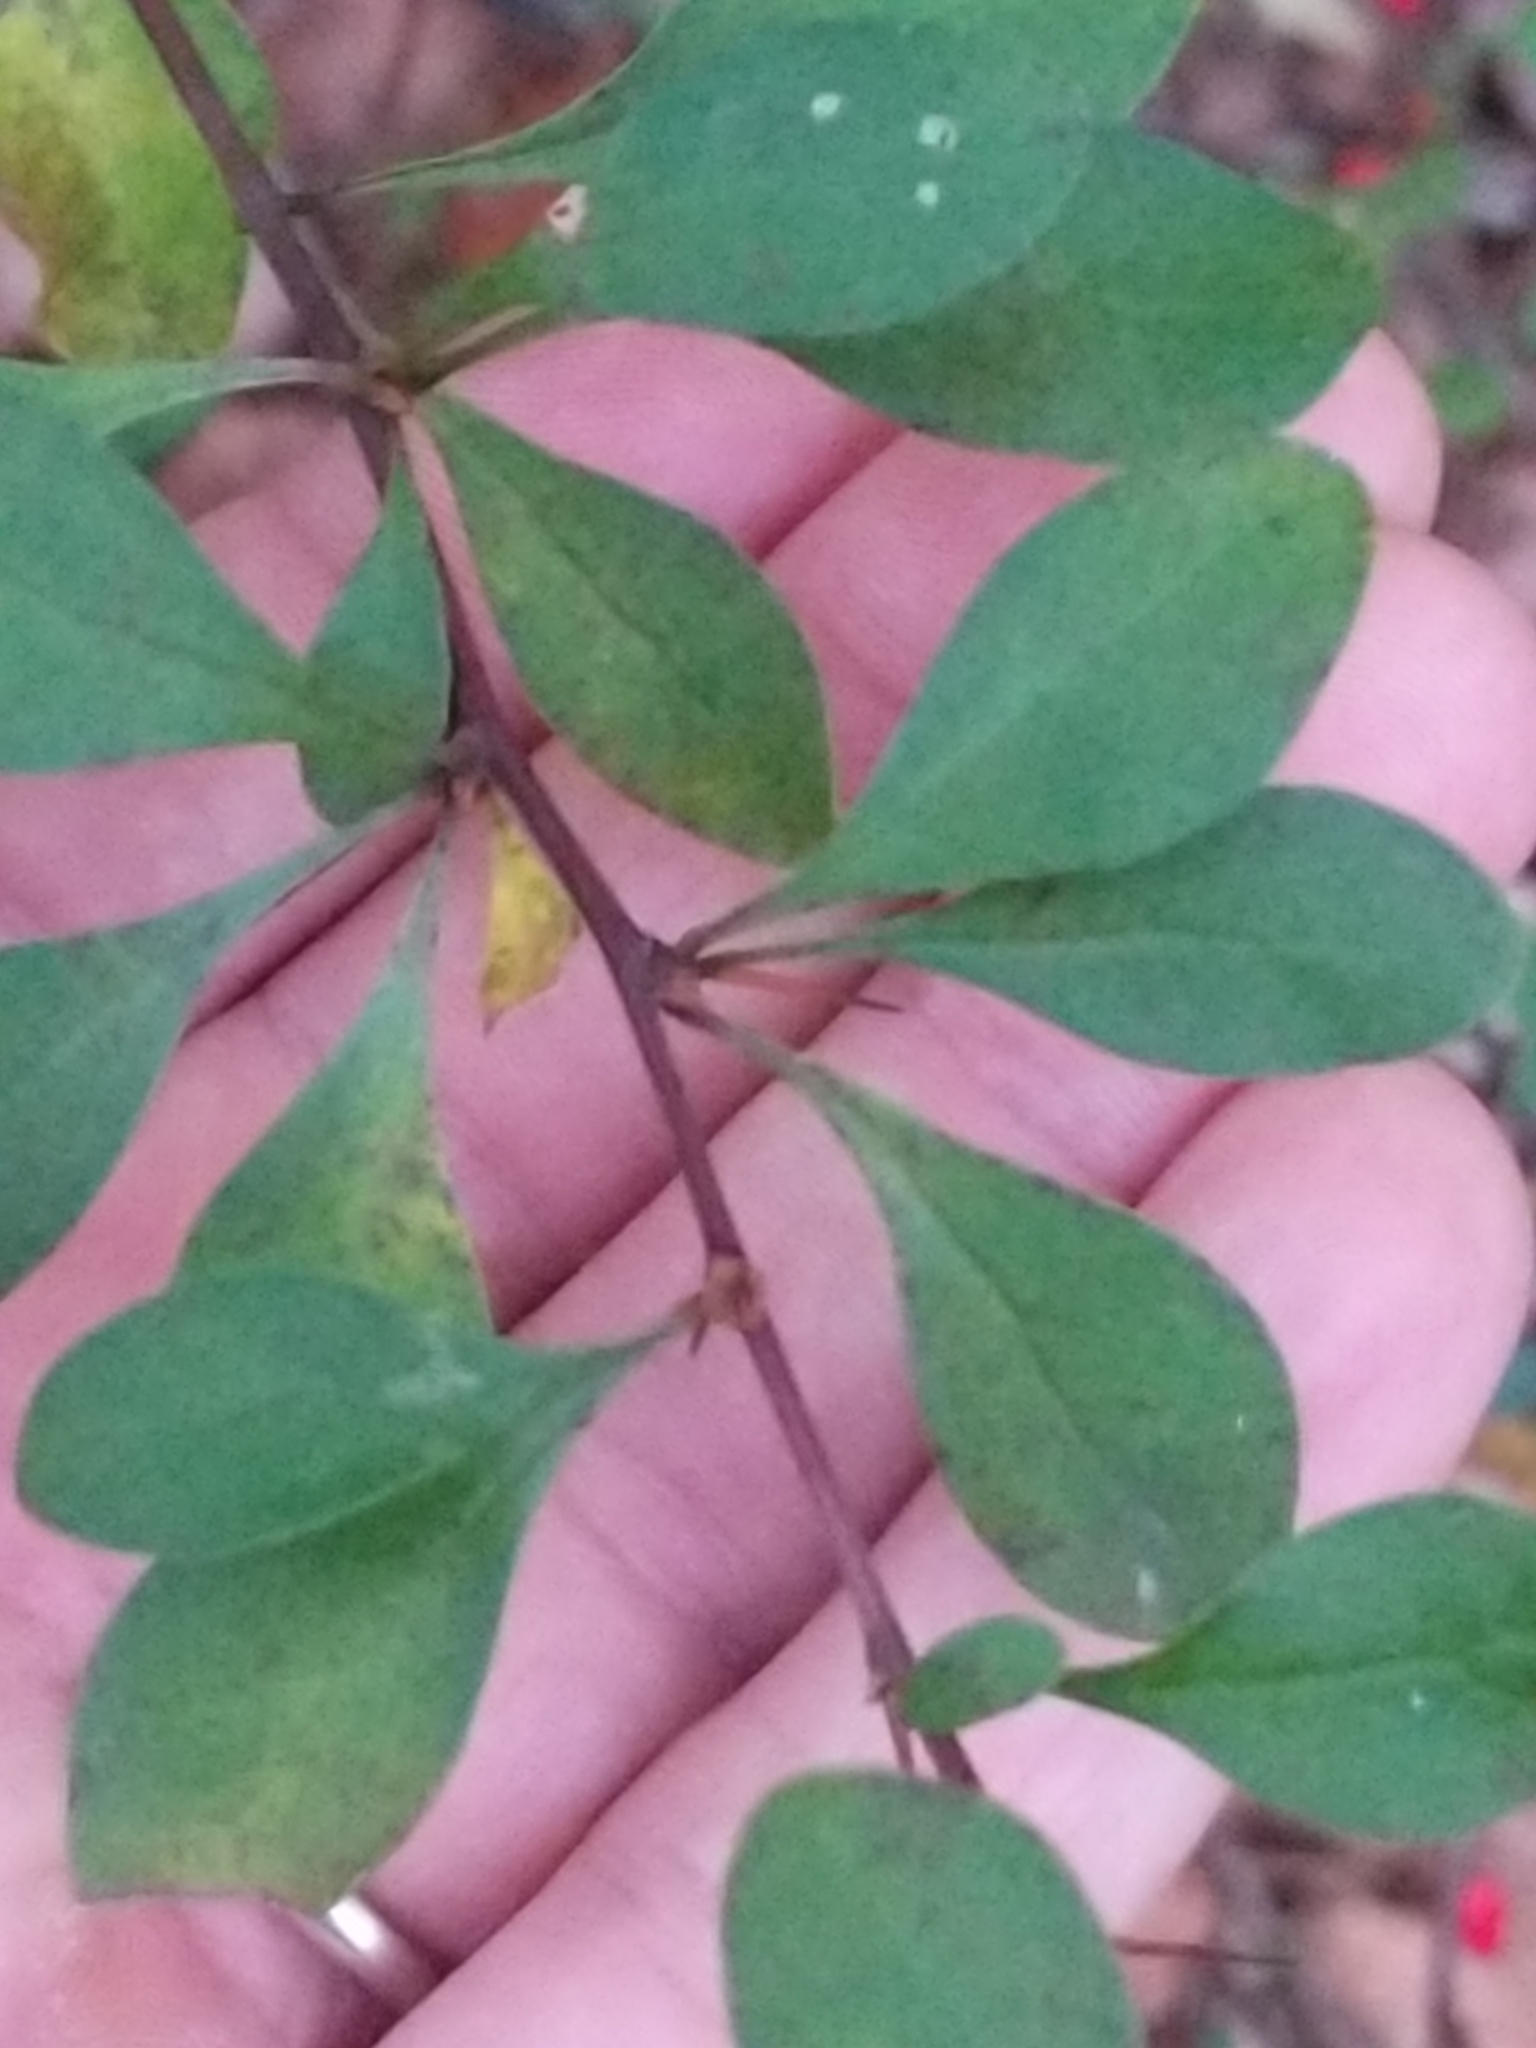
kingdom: Plantae
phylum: Tracheophyta
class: Magnoliopsida
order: Ranunculales
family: Berberidaceae
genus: Berberis
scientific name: Berberis thunbergii
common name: Japanese barberry
